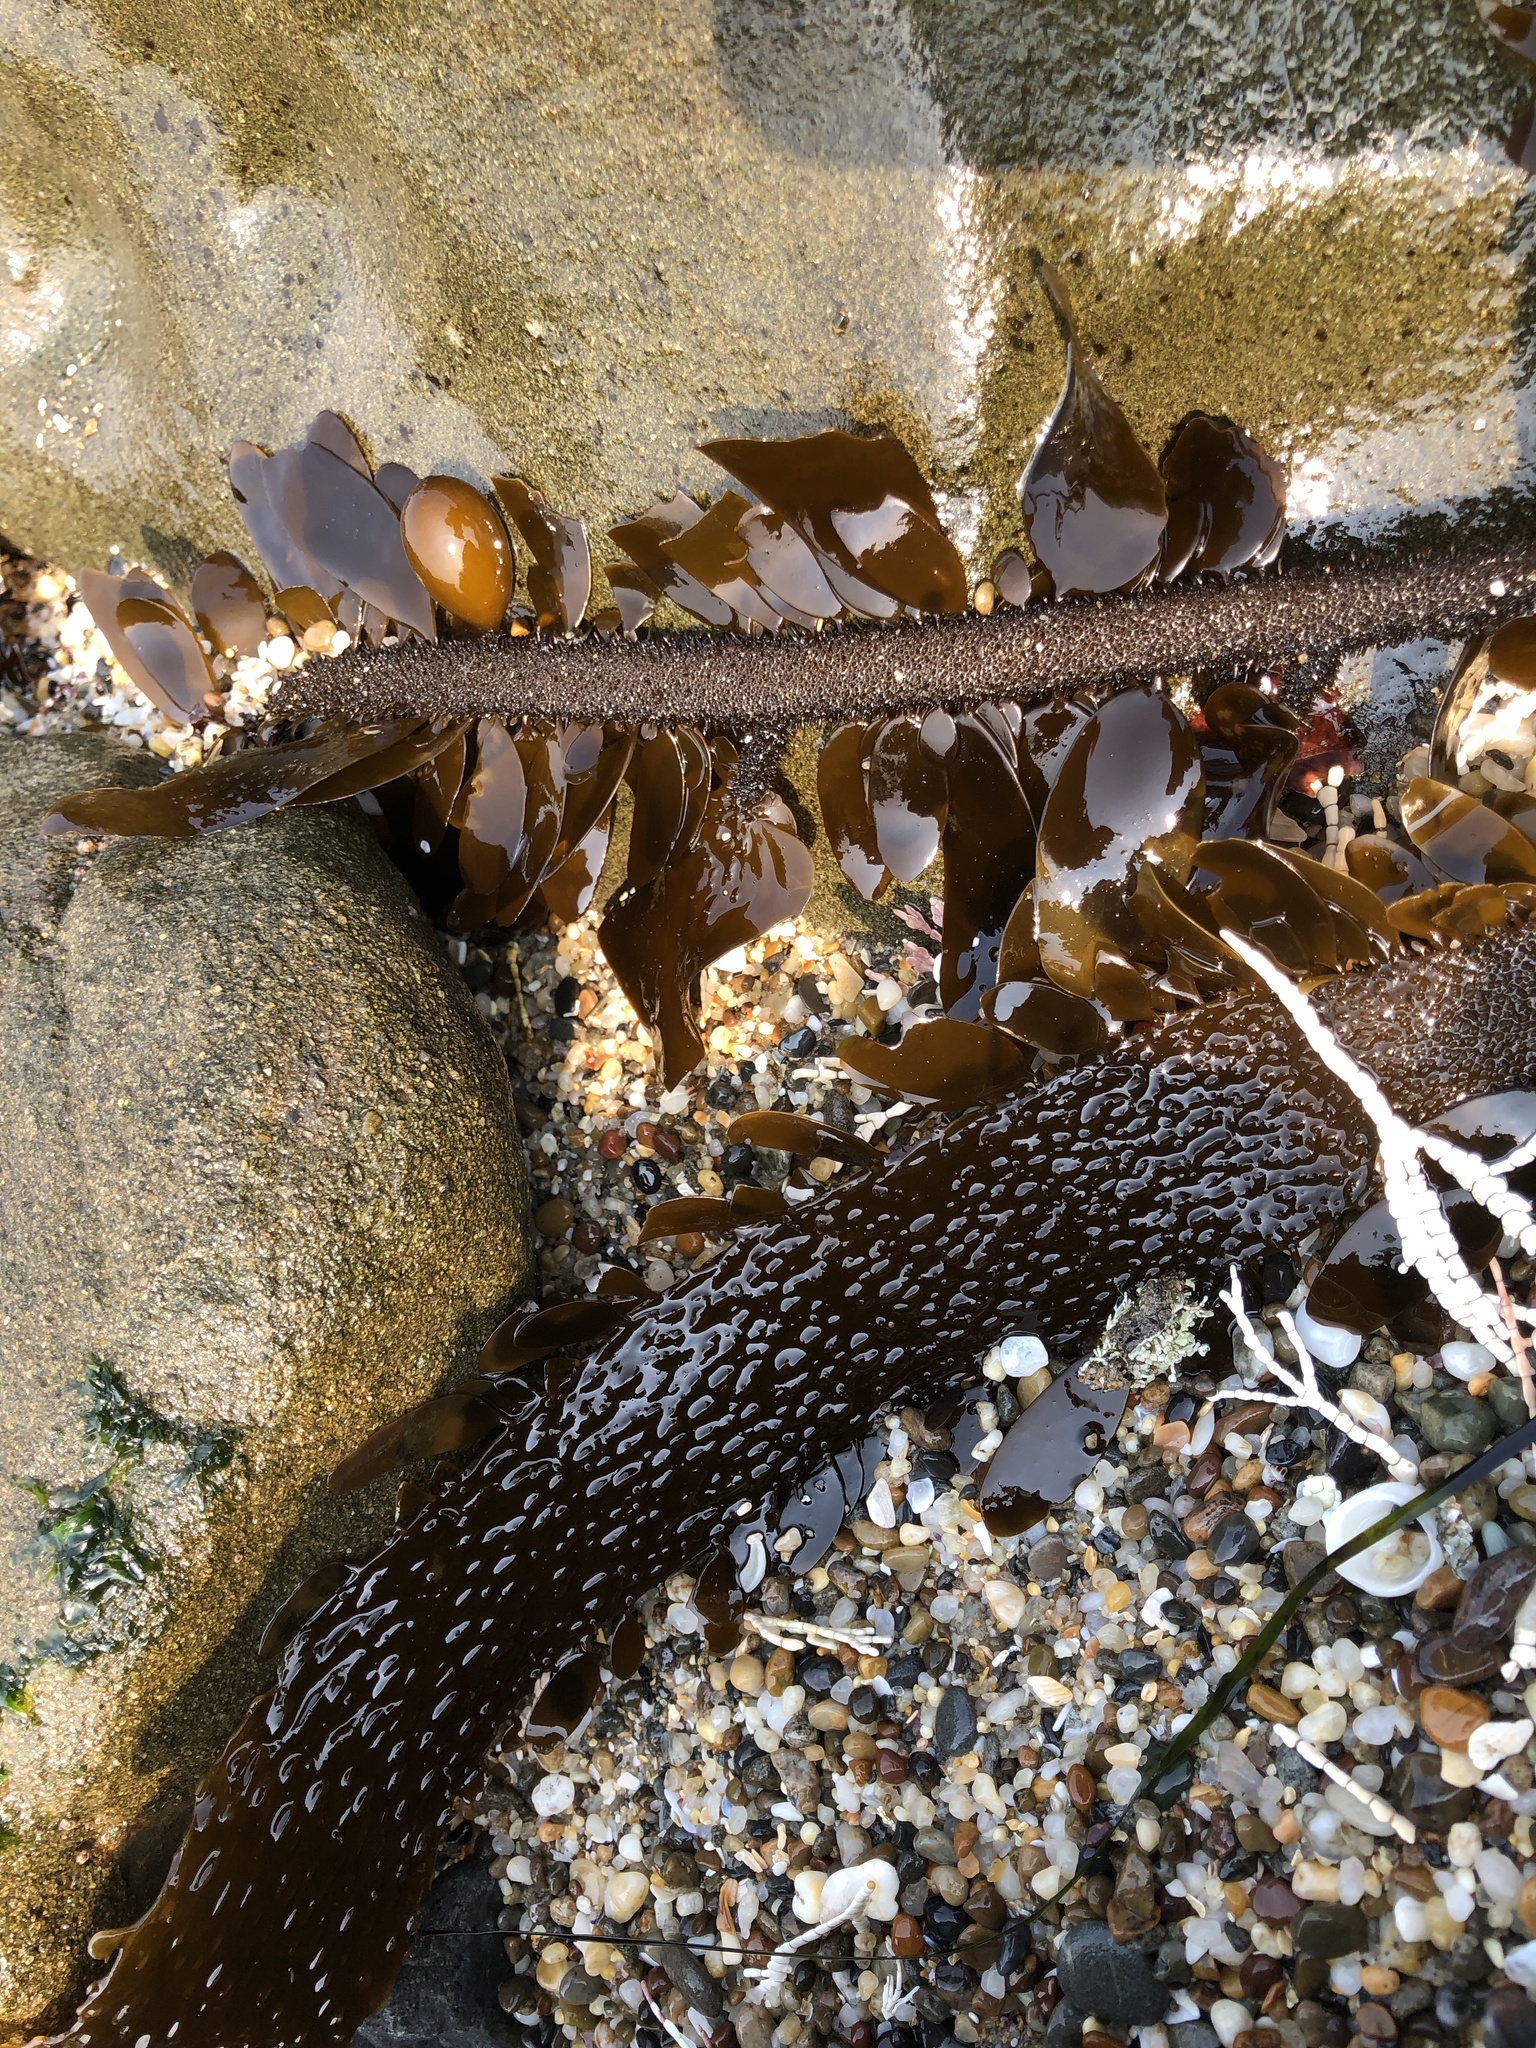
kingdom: Chromista
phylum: Ochrophyta
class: Phaeophyceae
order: Laminariales
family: Lessoniaceae
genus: Egregia
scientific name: Egregia menziesii
